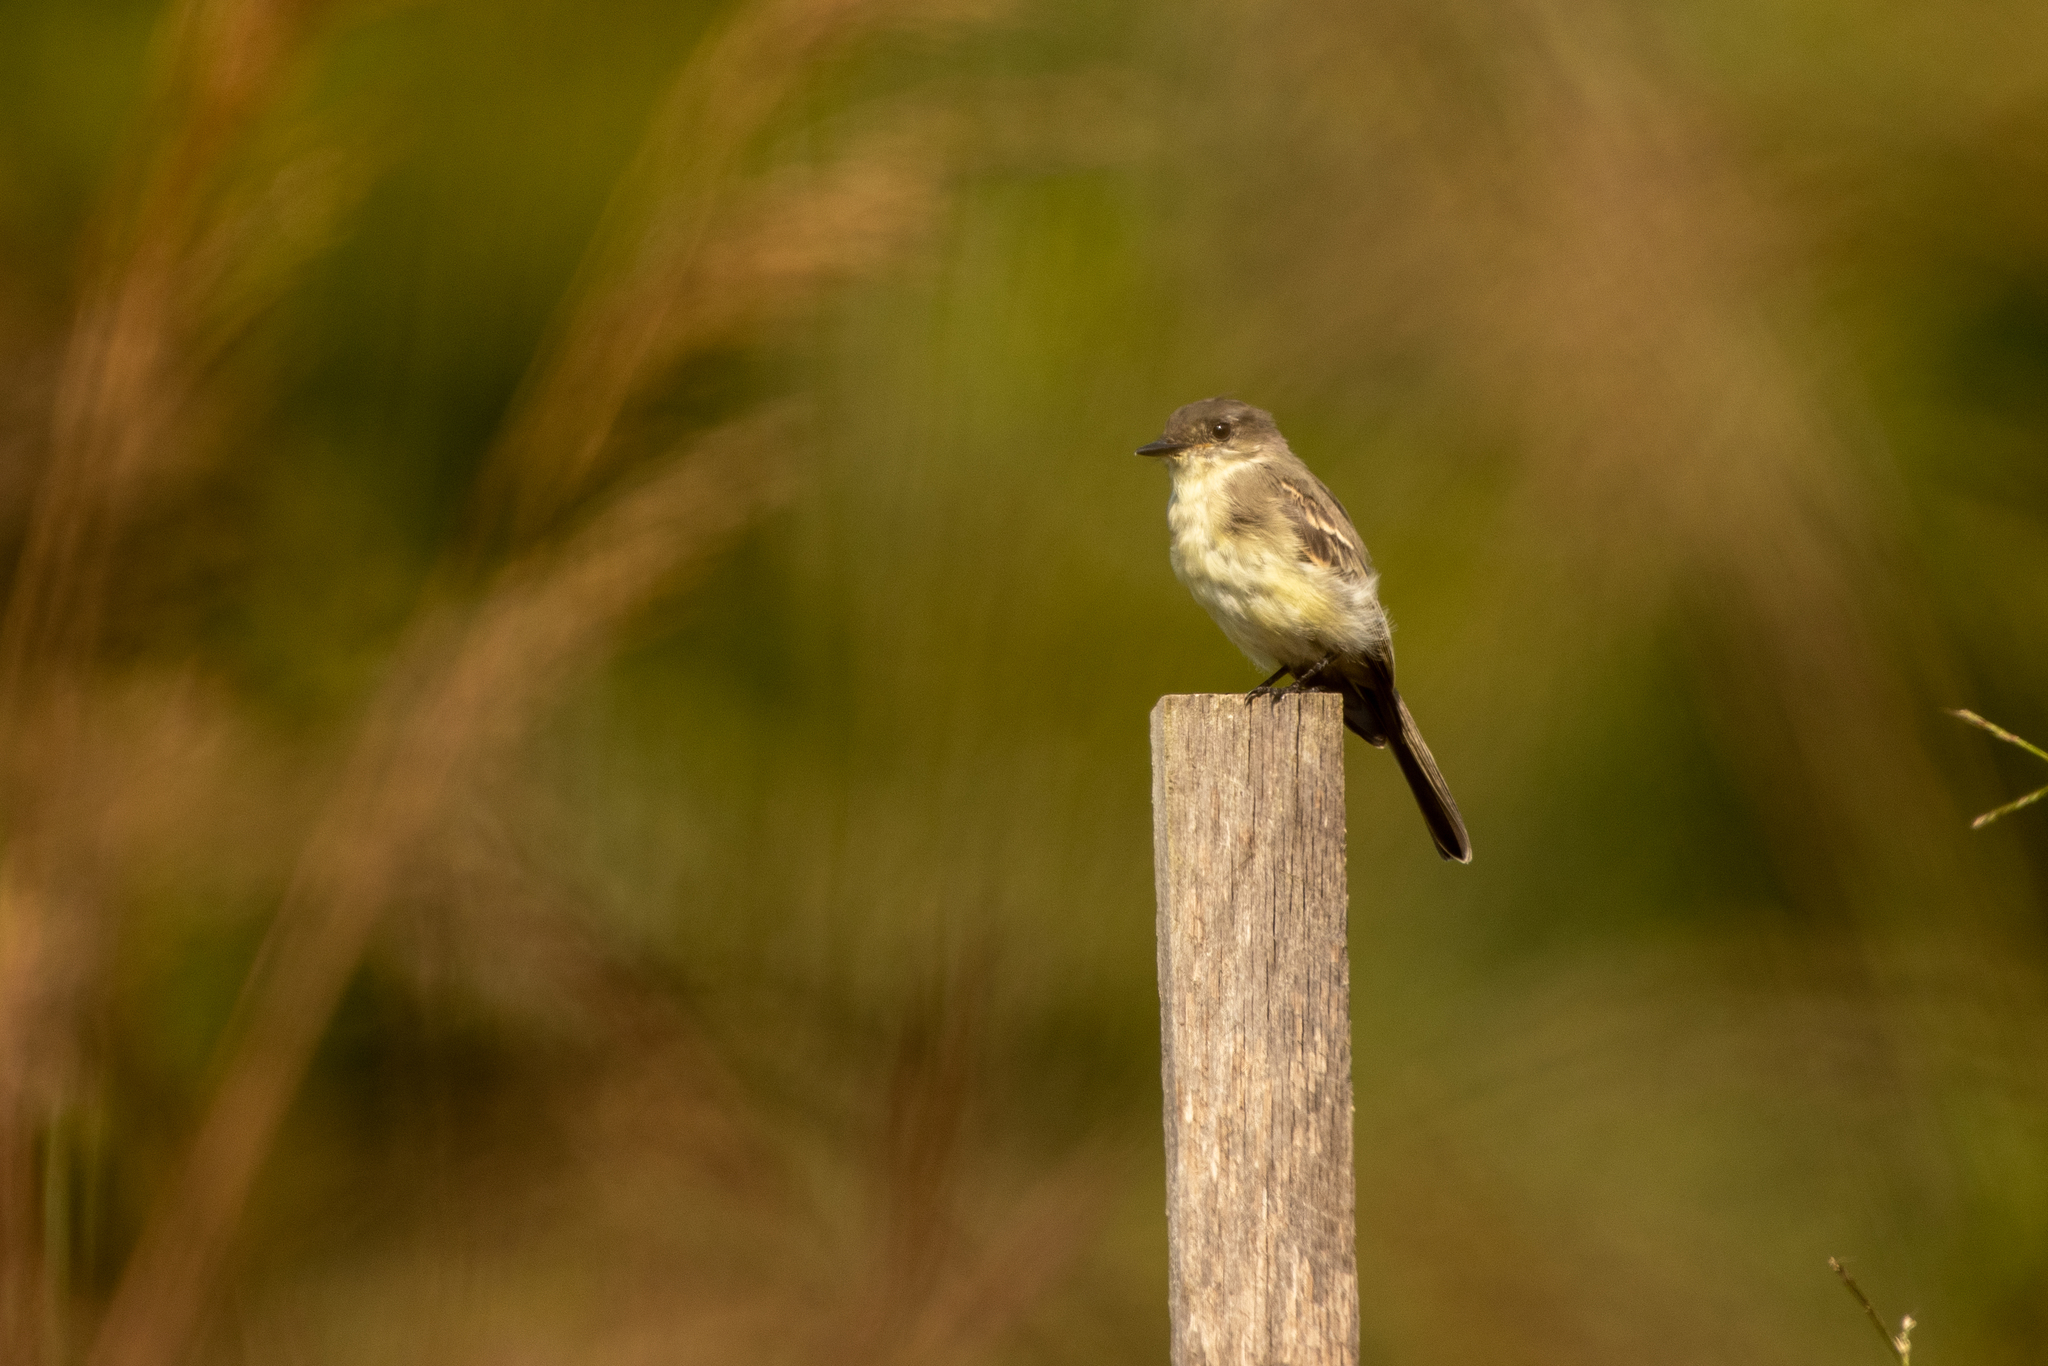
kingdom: Animalia
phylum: Chordata
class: Aves
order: Passeriformes
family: Tyrannidae
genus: Sayornis
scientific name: Sayornis phoebe
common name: Eastern phoebe
